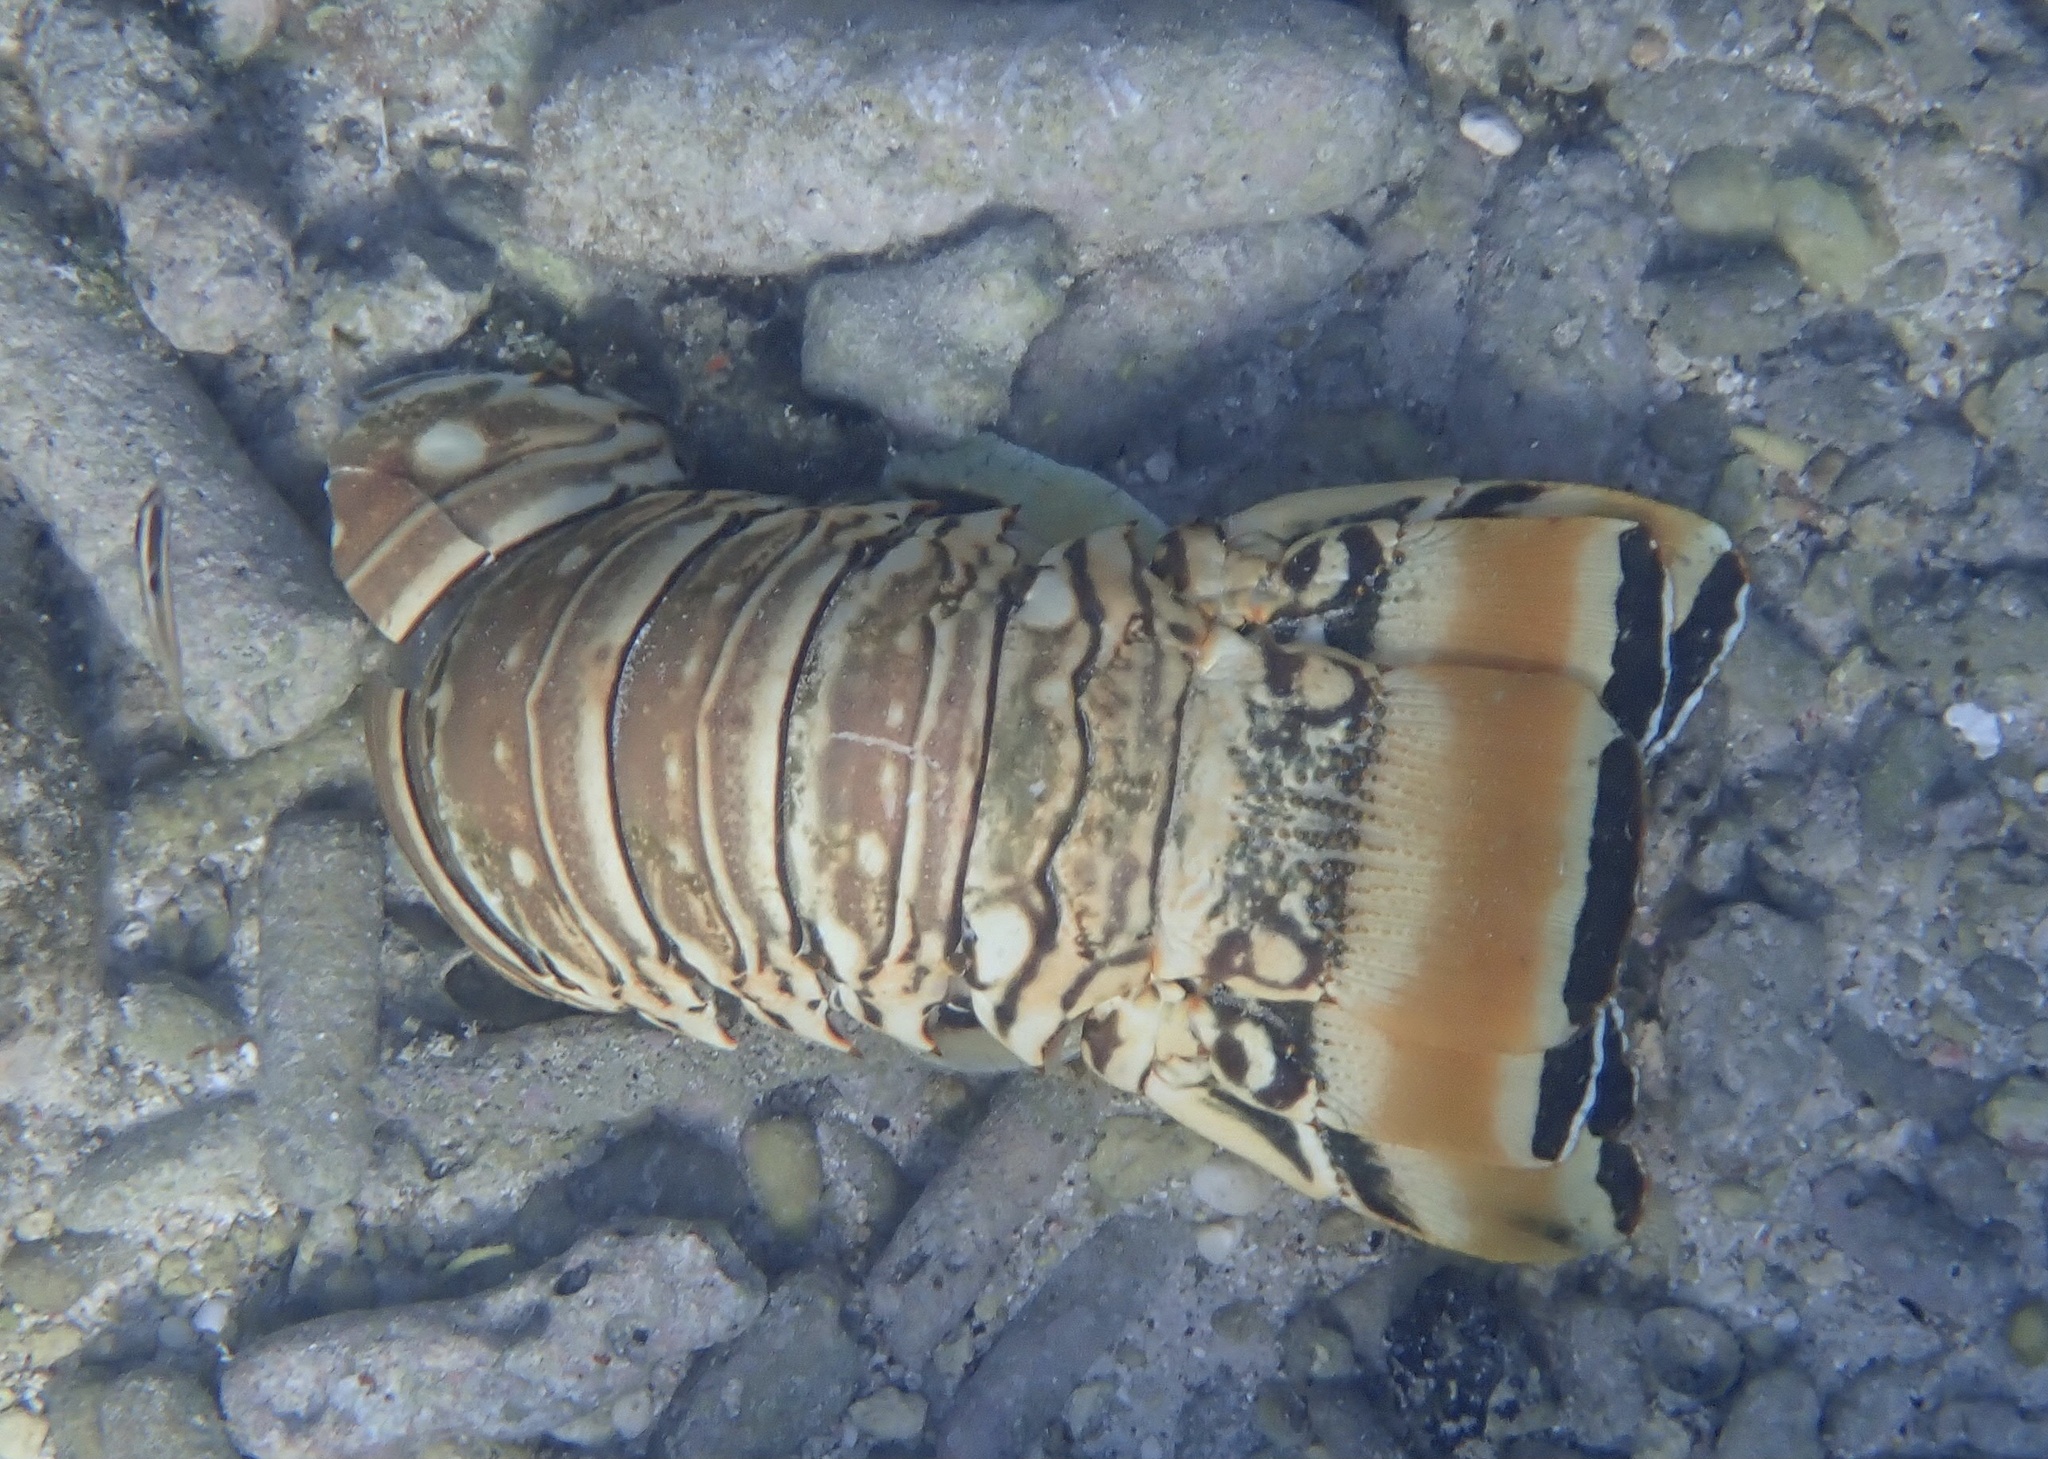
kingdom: Animalia
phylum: Arthropoda
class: Malacostraca
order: Decapoda
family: Palinuridae
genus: Panulirus
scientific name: Panulirus argus
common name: Caribbean spiny lobster
